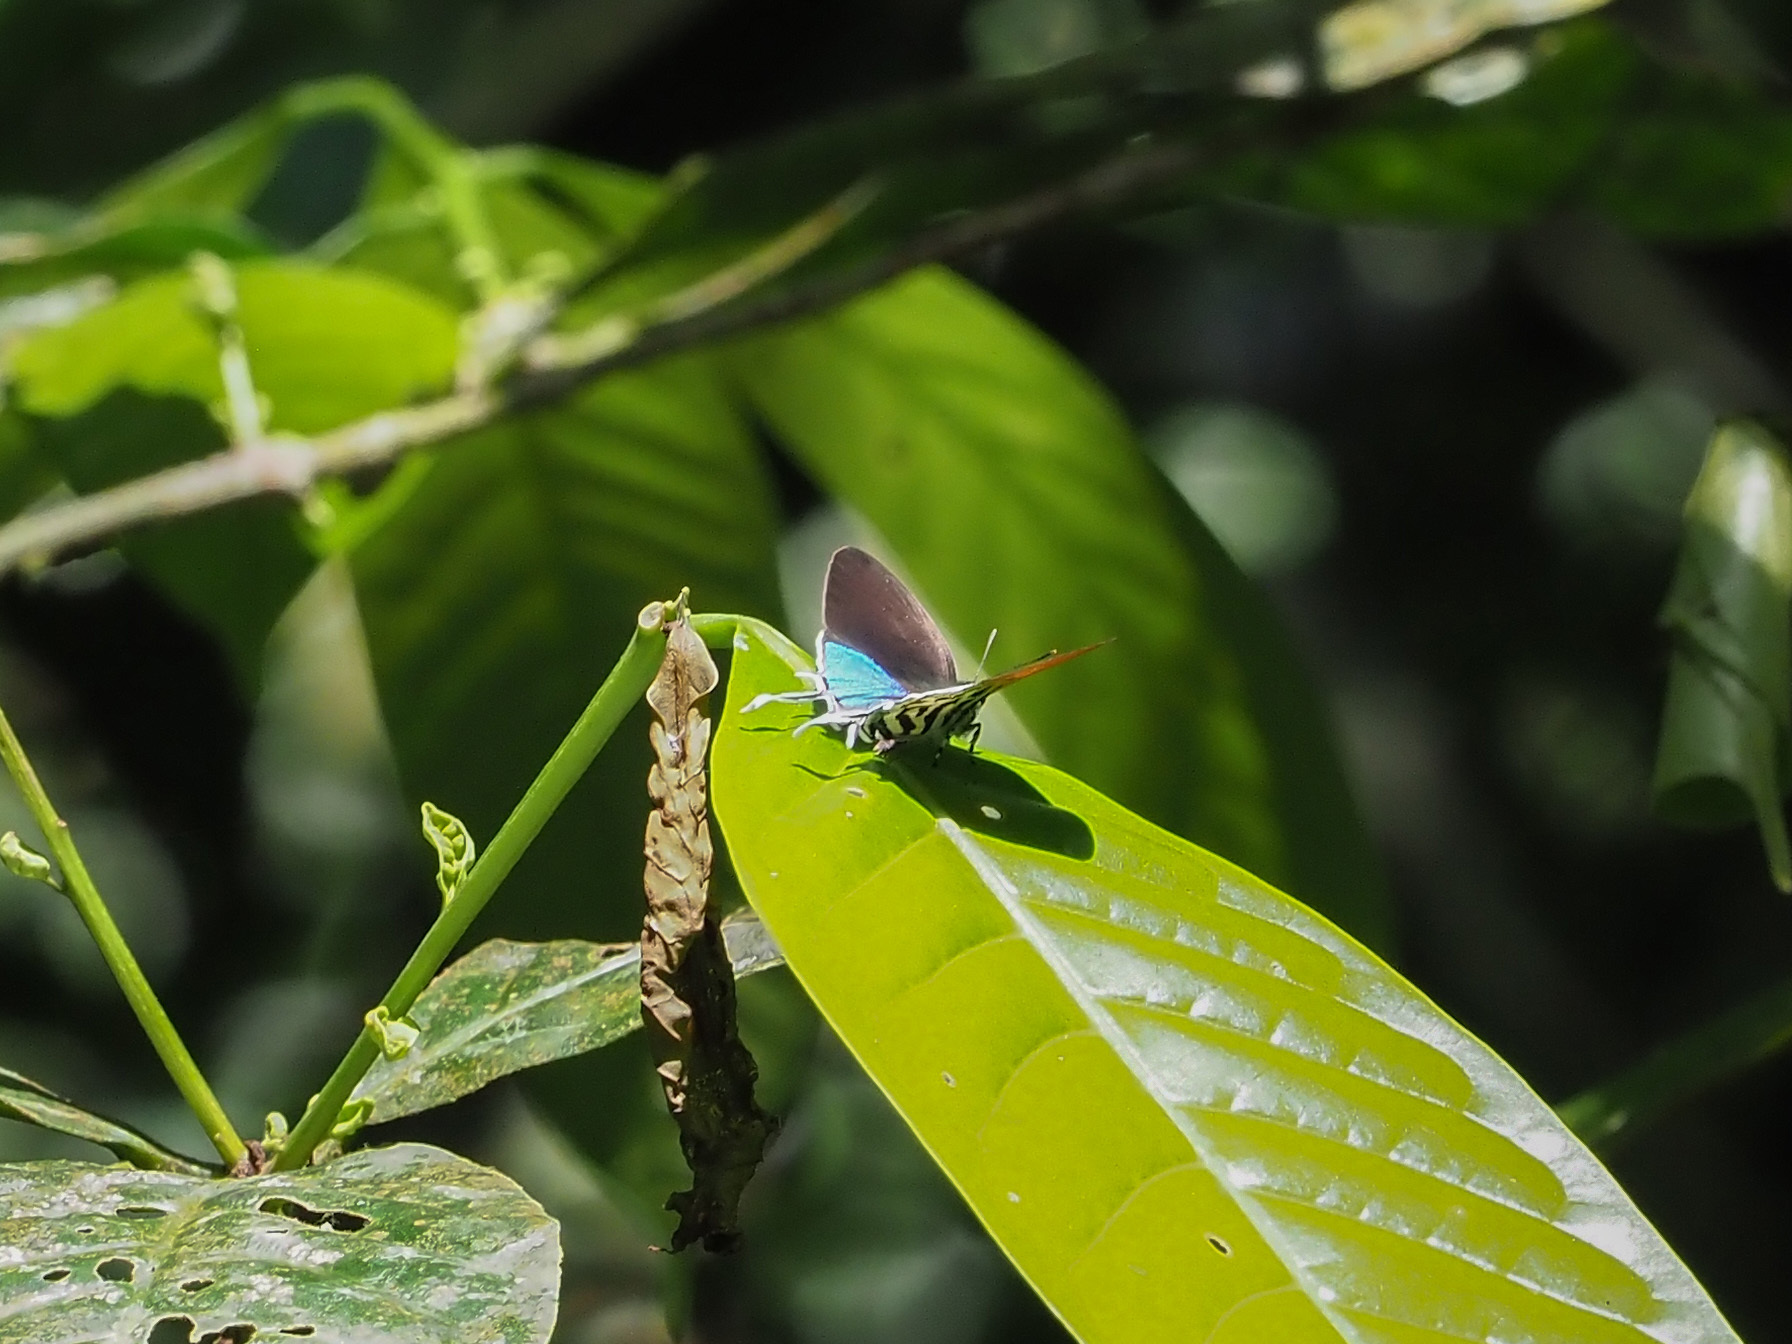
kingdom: Animalia
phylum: Arthropoda
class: Insecta
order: Lepidoptera
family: Lycaenidae
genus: Drupadia
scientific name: Drupadia ravindra
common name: Common posy
